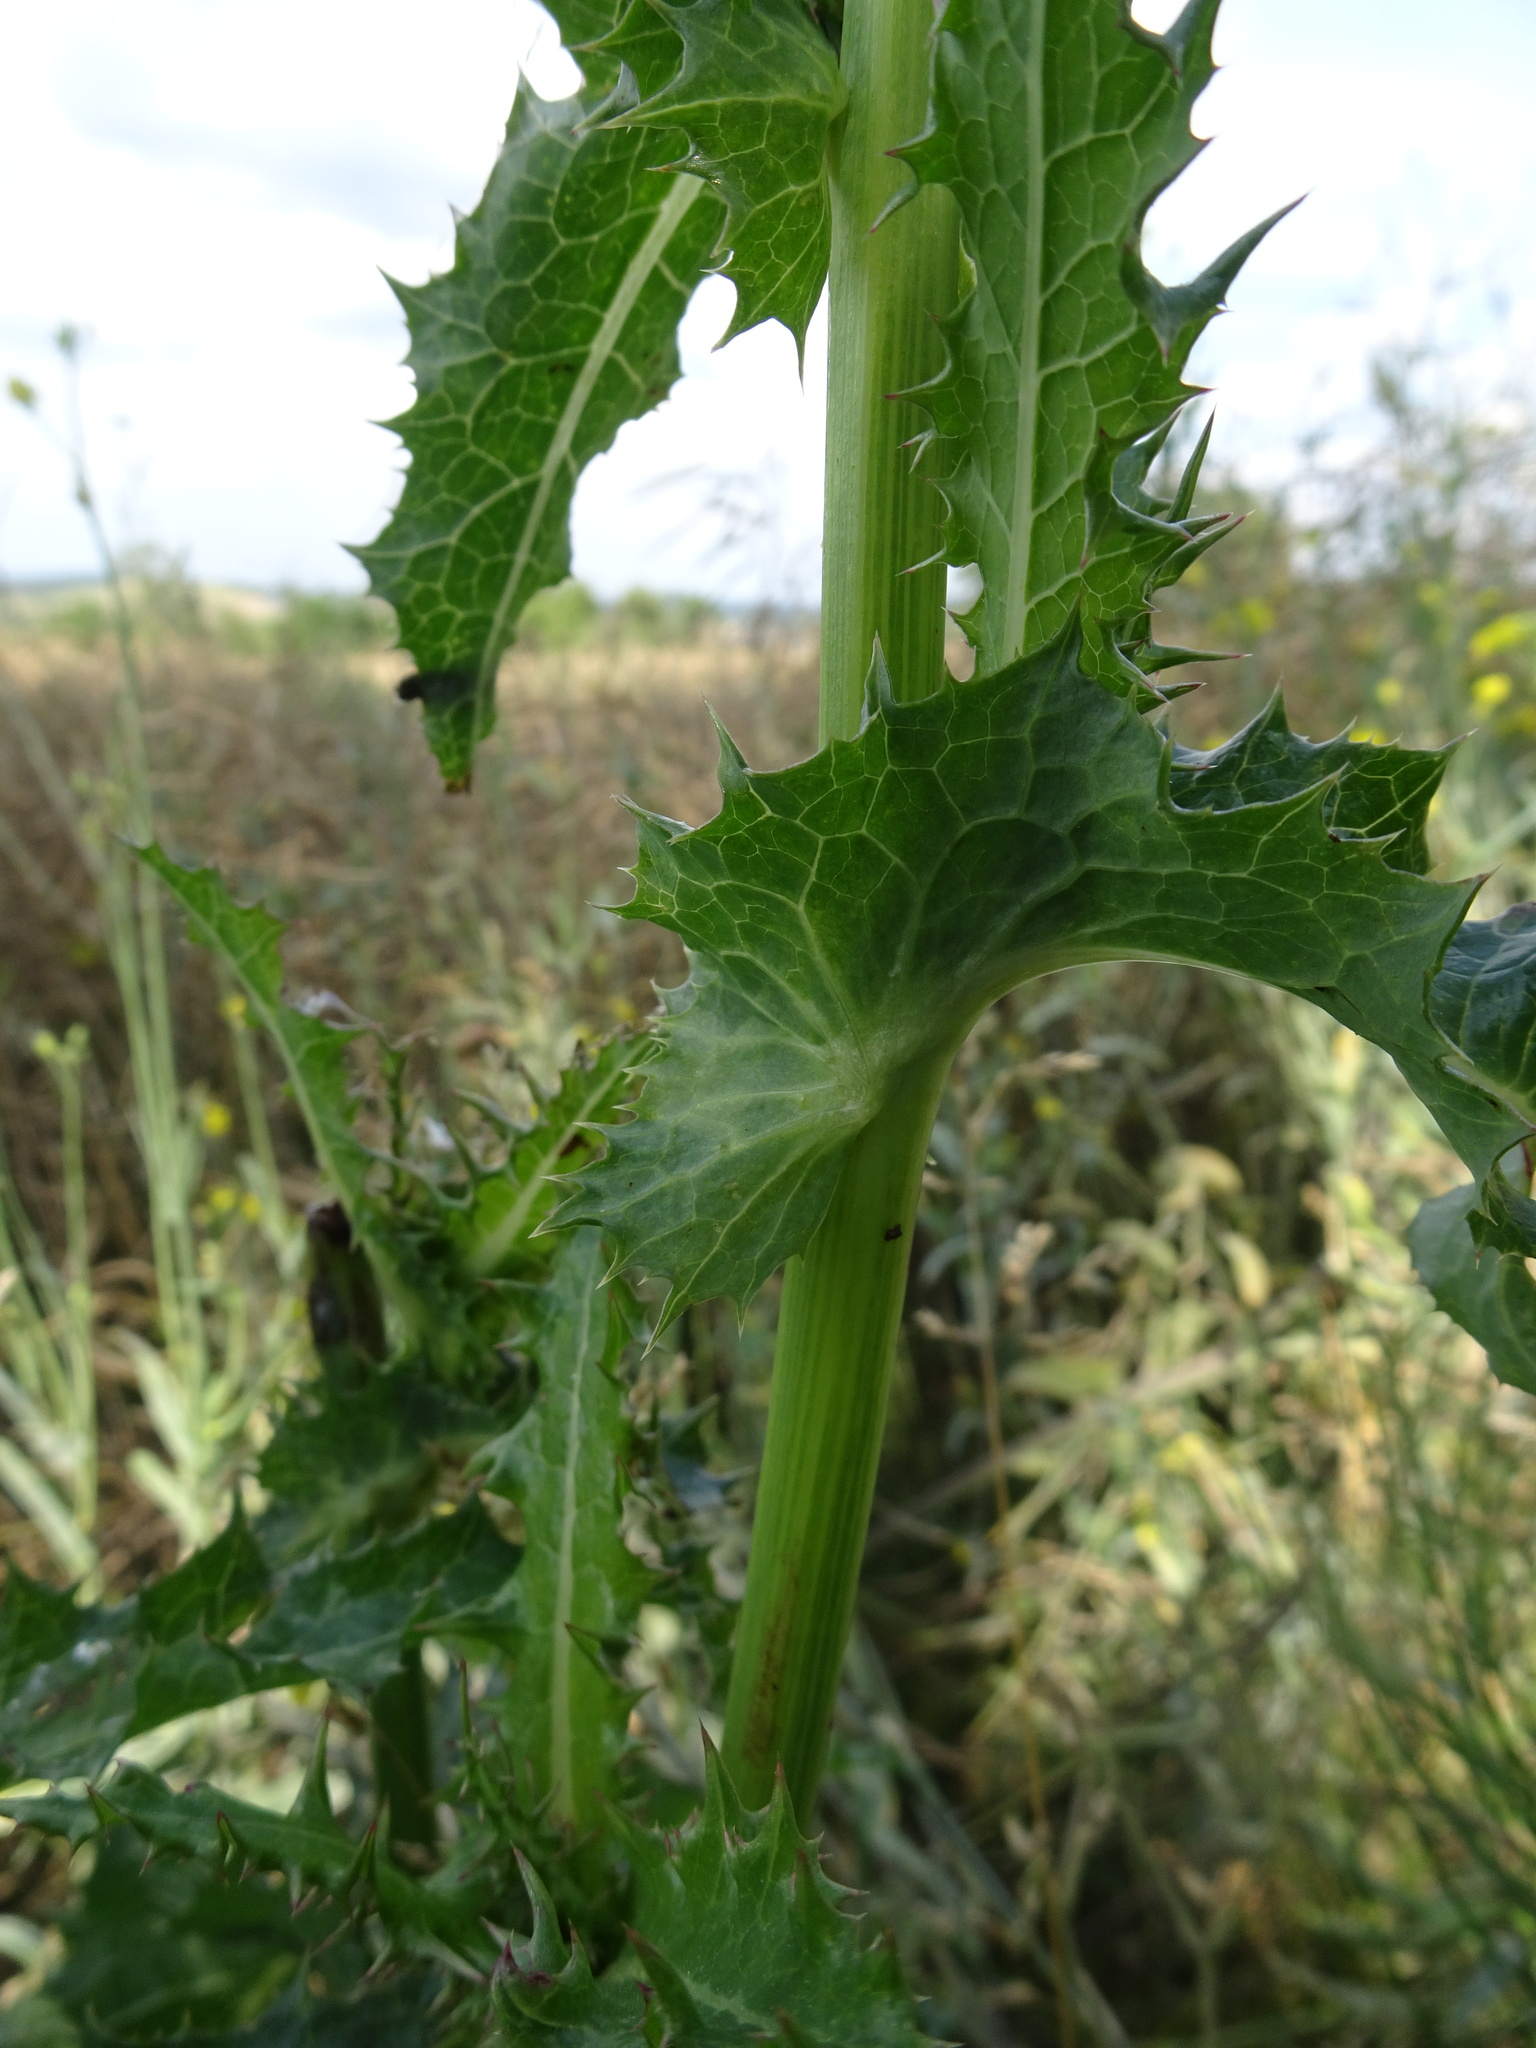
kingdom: Plantae
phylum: Tracheophyta
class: Magnoliopsida
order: Asterales
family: Asteraceae
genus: Sonchus
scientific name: Sonchus asper
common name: Prickly sow-thistle
